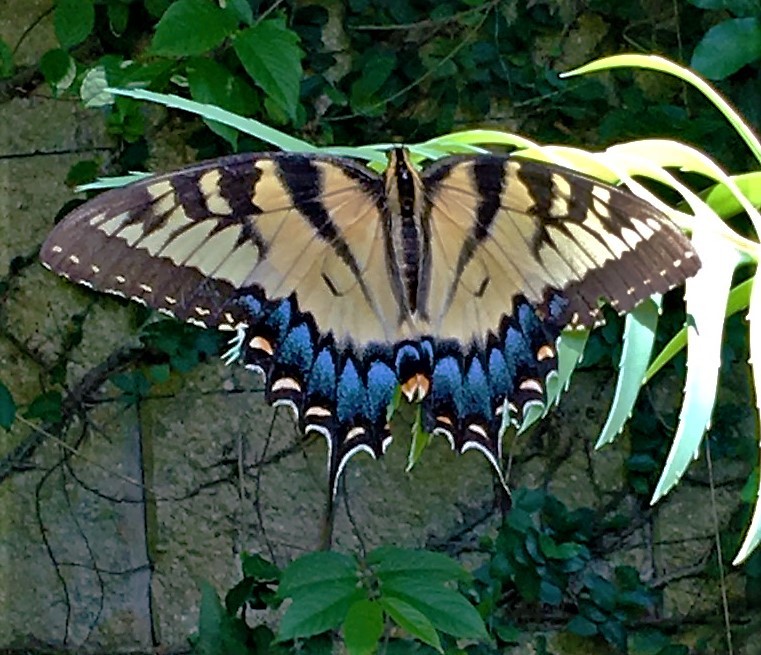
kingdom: Animalia
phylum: Arthropoda
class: Insecta
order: Lepidoptera
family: Papilionidae
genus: Papilio
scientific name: Papilio glaucus
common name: Tiger swallowtail
